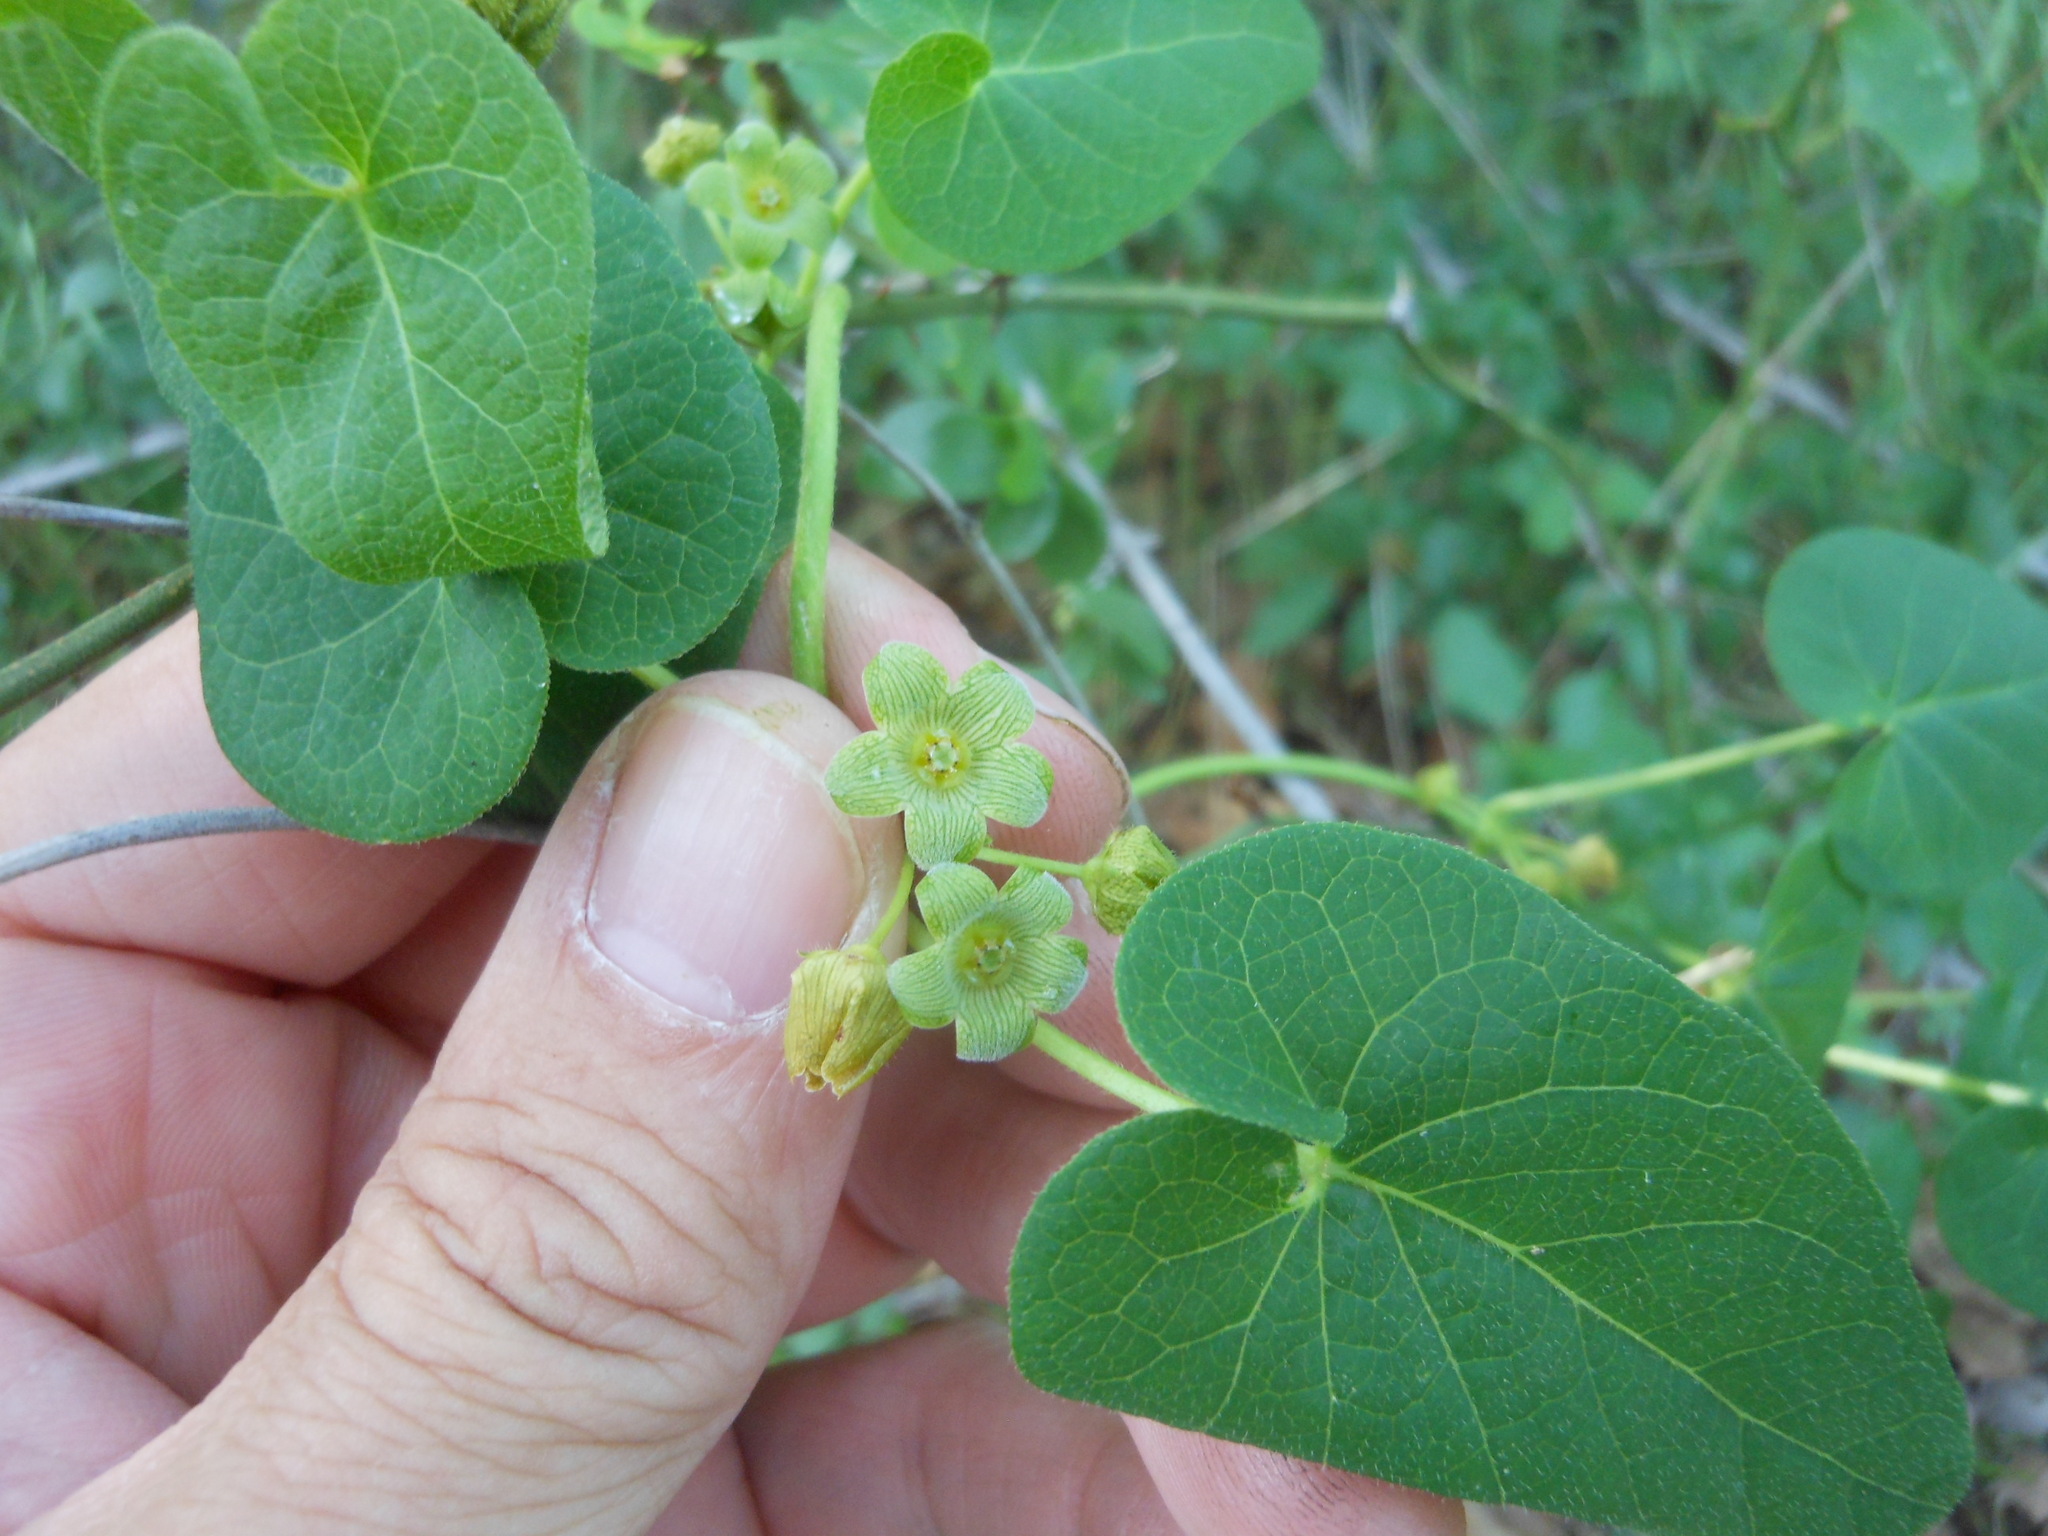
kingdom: Plantae
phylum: Tracheophyta
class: Magnoliopsida
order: Gentianales
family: Apocynaceae
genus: Matelea
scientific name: Matelea edwardsensis
